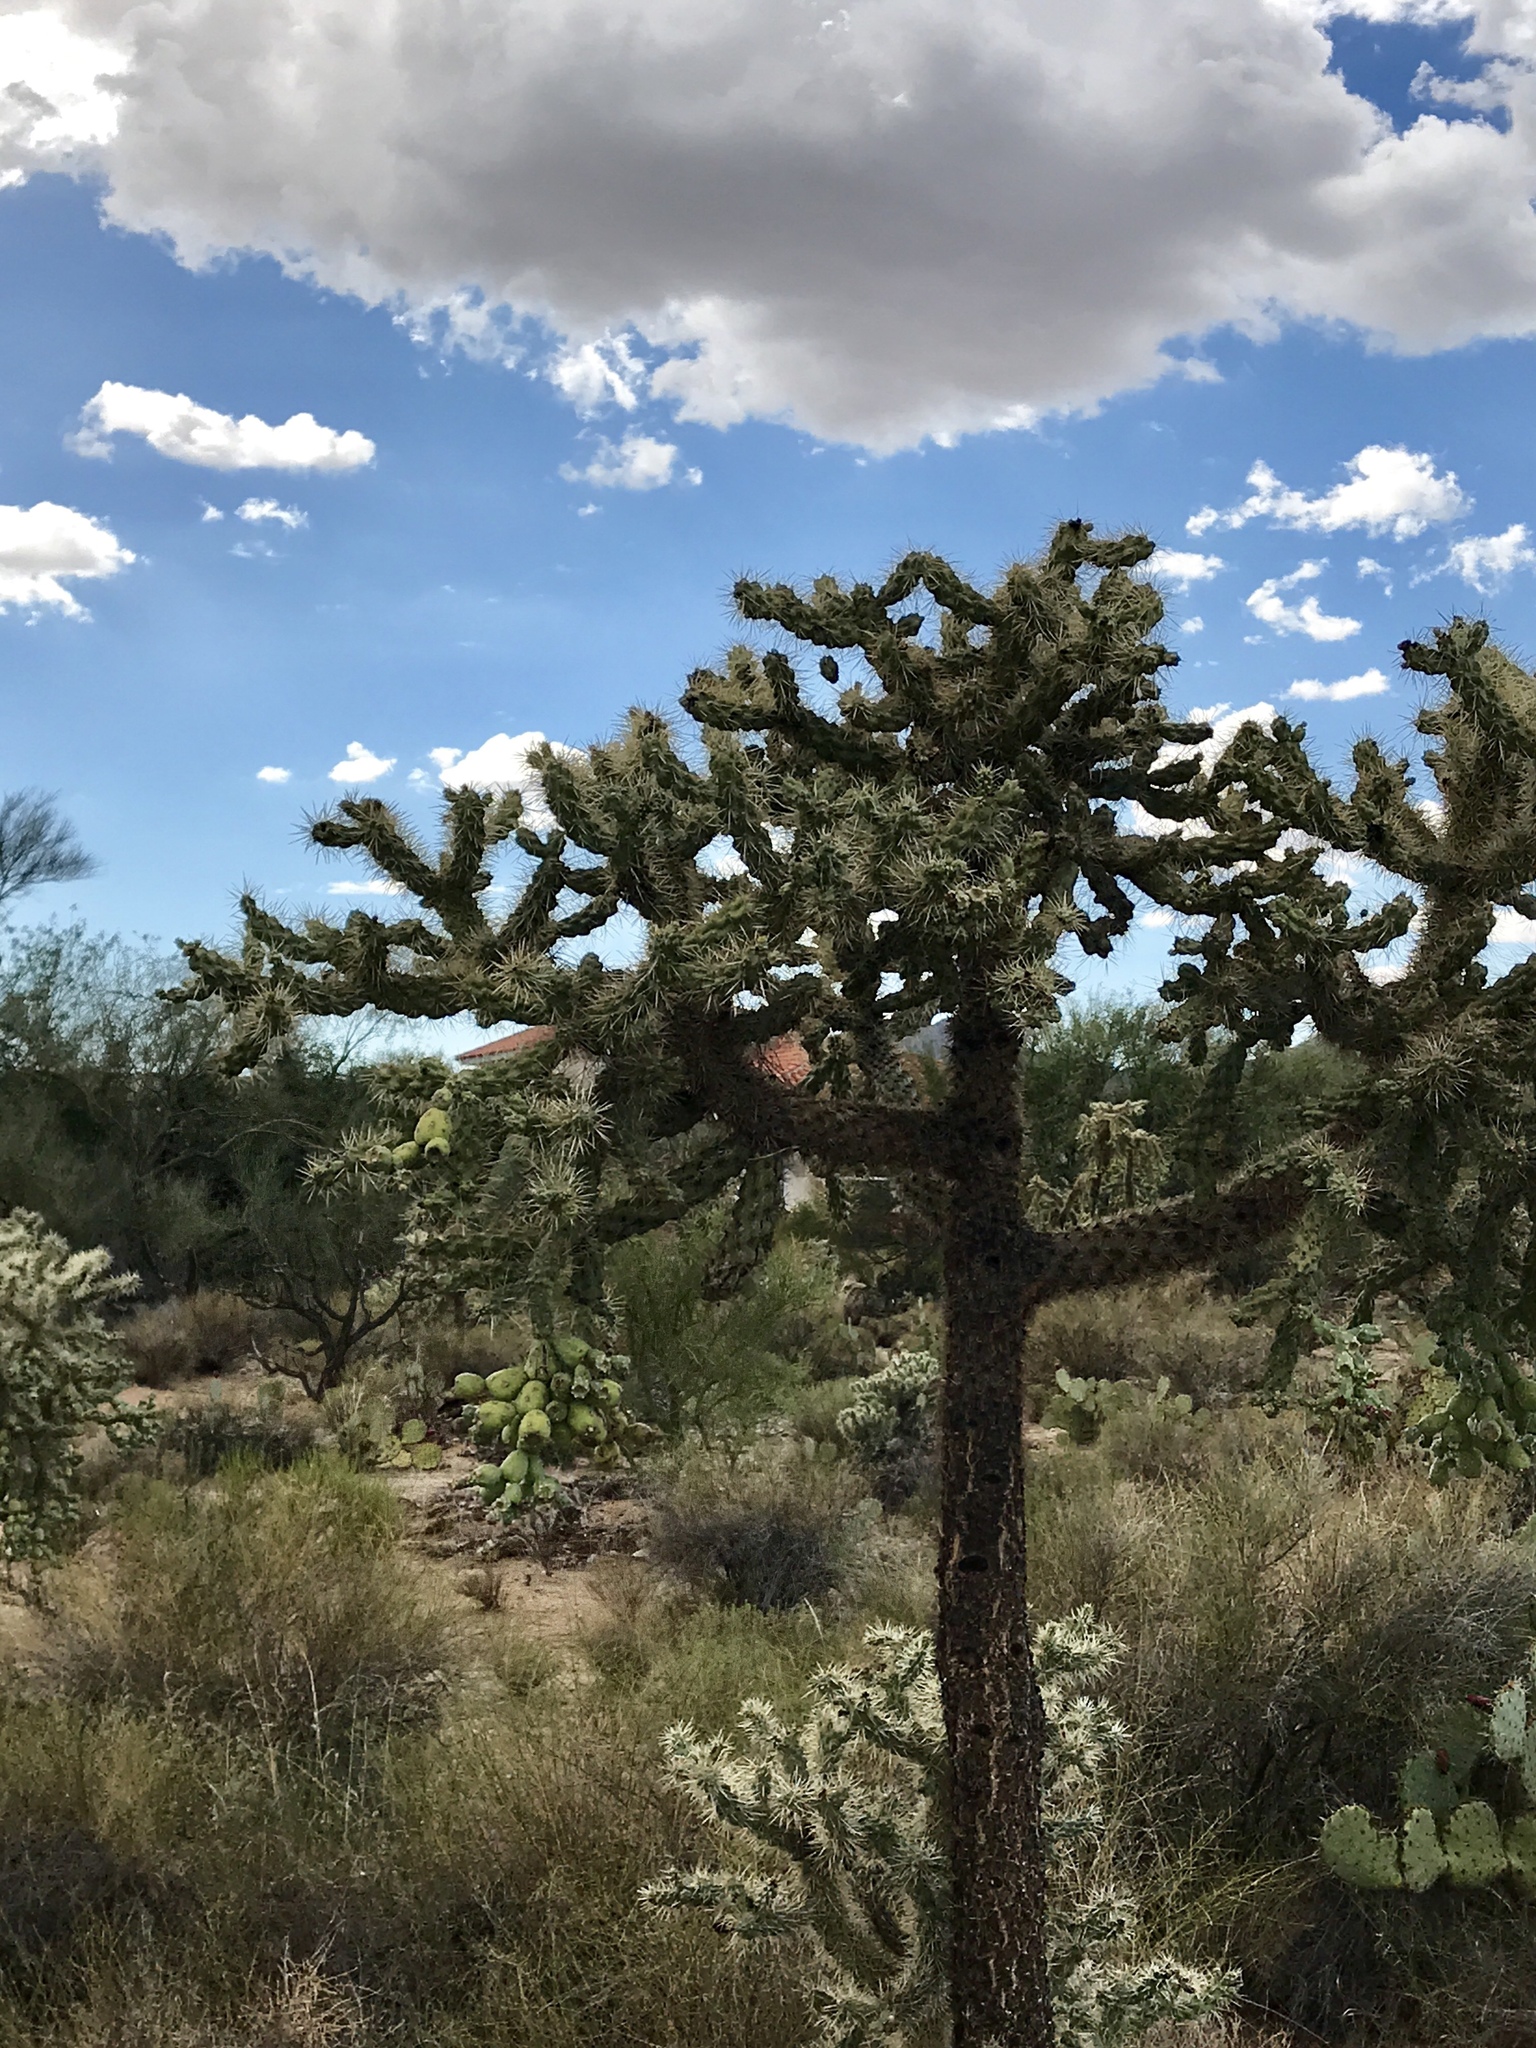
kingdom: Plantae
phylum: Tracheophyta
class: Magnoliopsida
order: Caryophyllales
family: Cactaceae
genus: Cylindropuntia
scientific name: Cylindropuntia fulgida
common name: Jumping cholla
